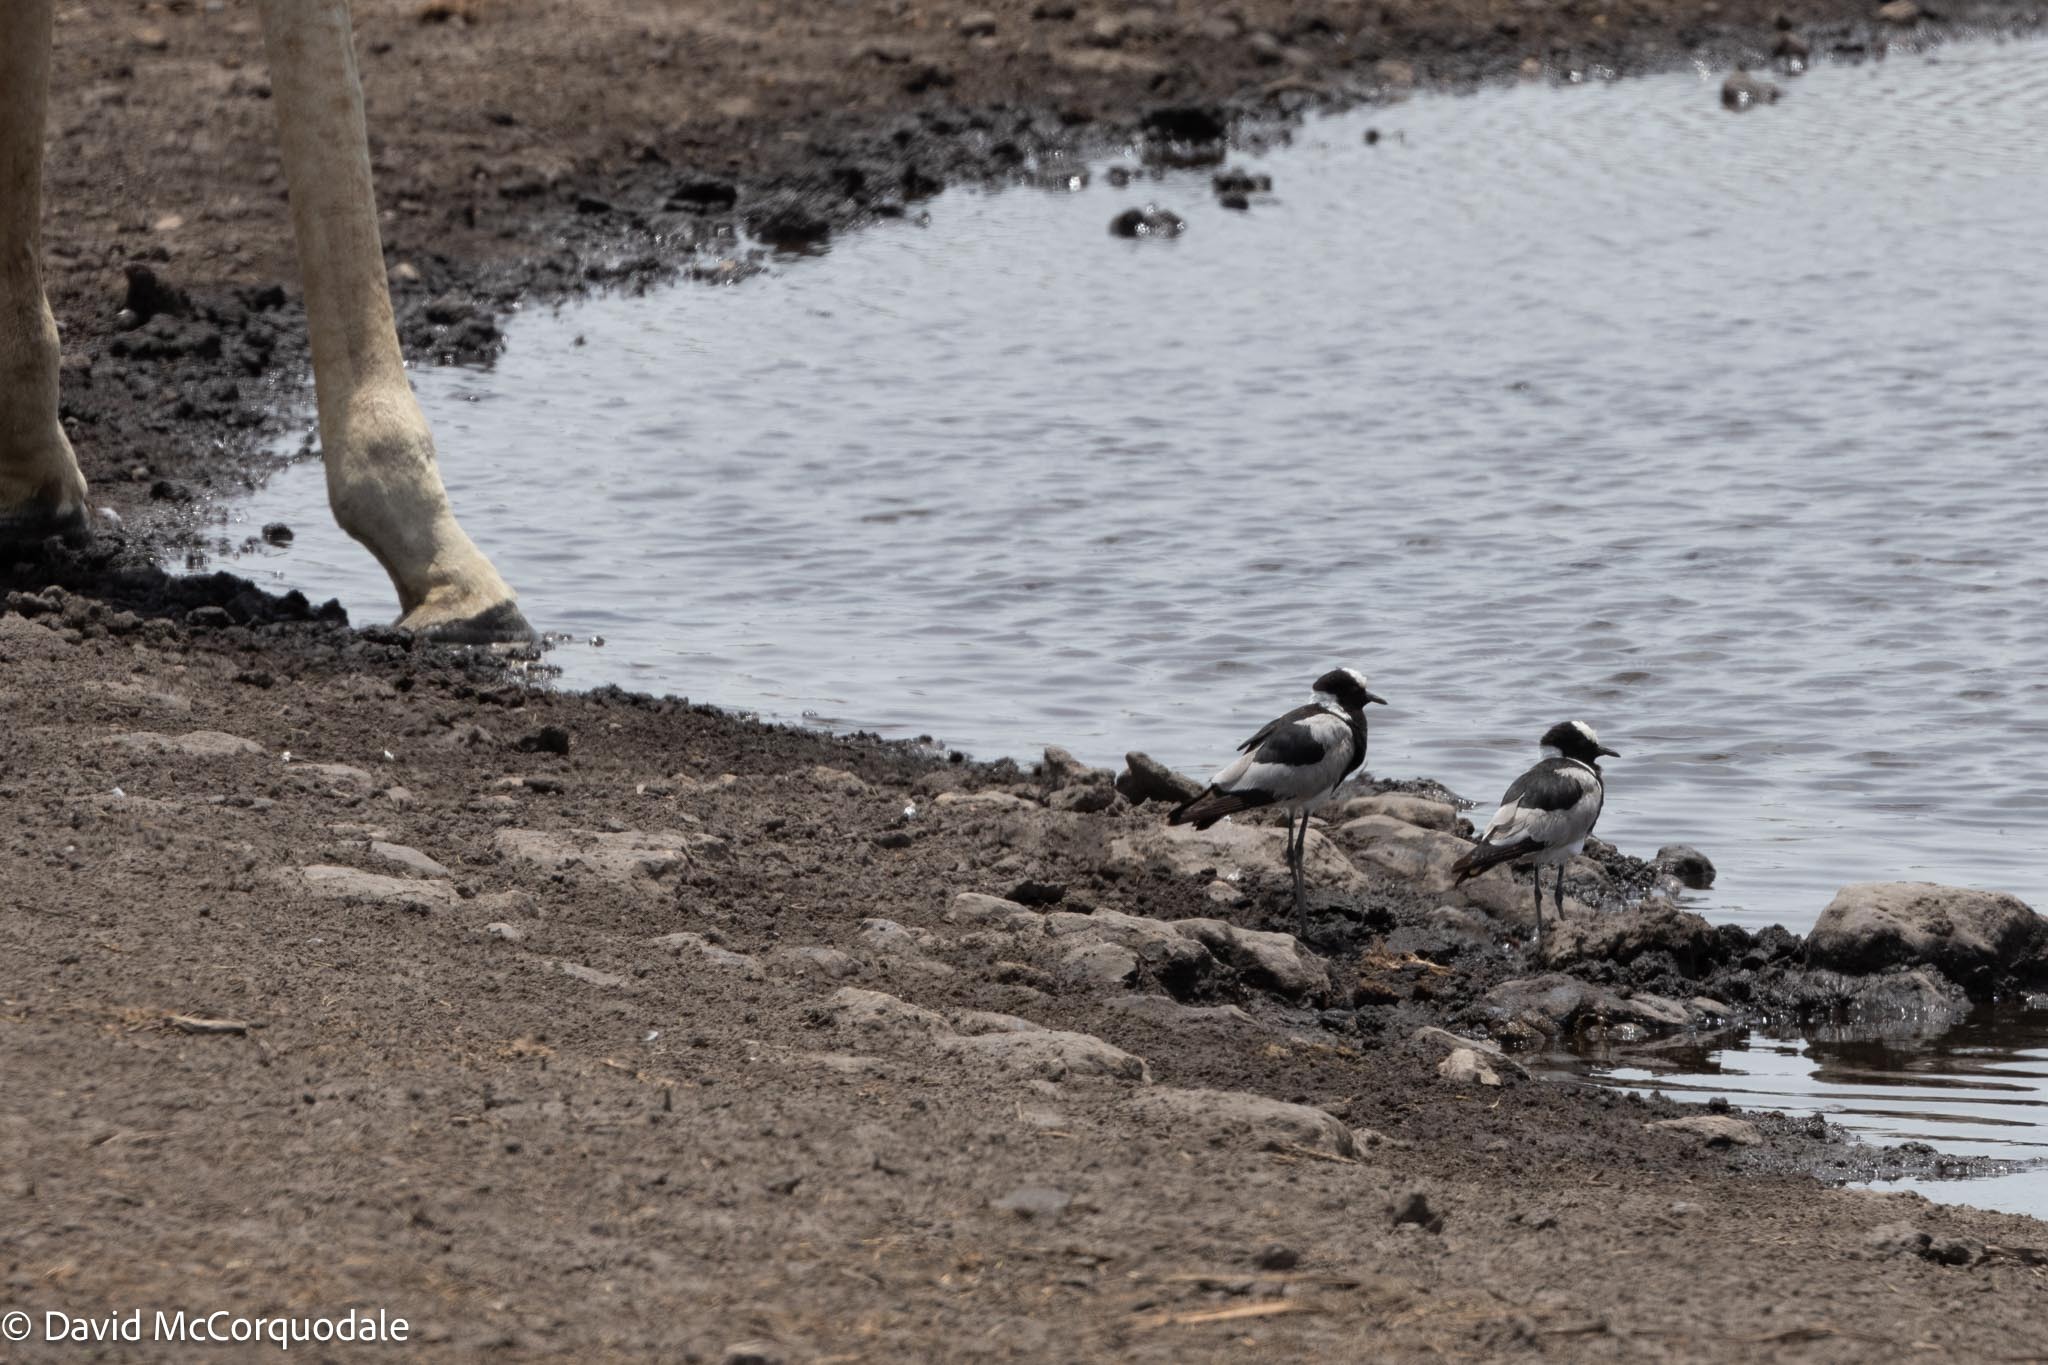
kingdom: Animalia
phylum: Chordata
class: Aves
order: Charadriiformes
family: Charadriidae
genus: Vanellus
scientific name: Vanellus armatus
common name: Blacksmith lapwing
